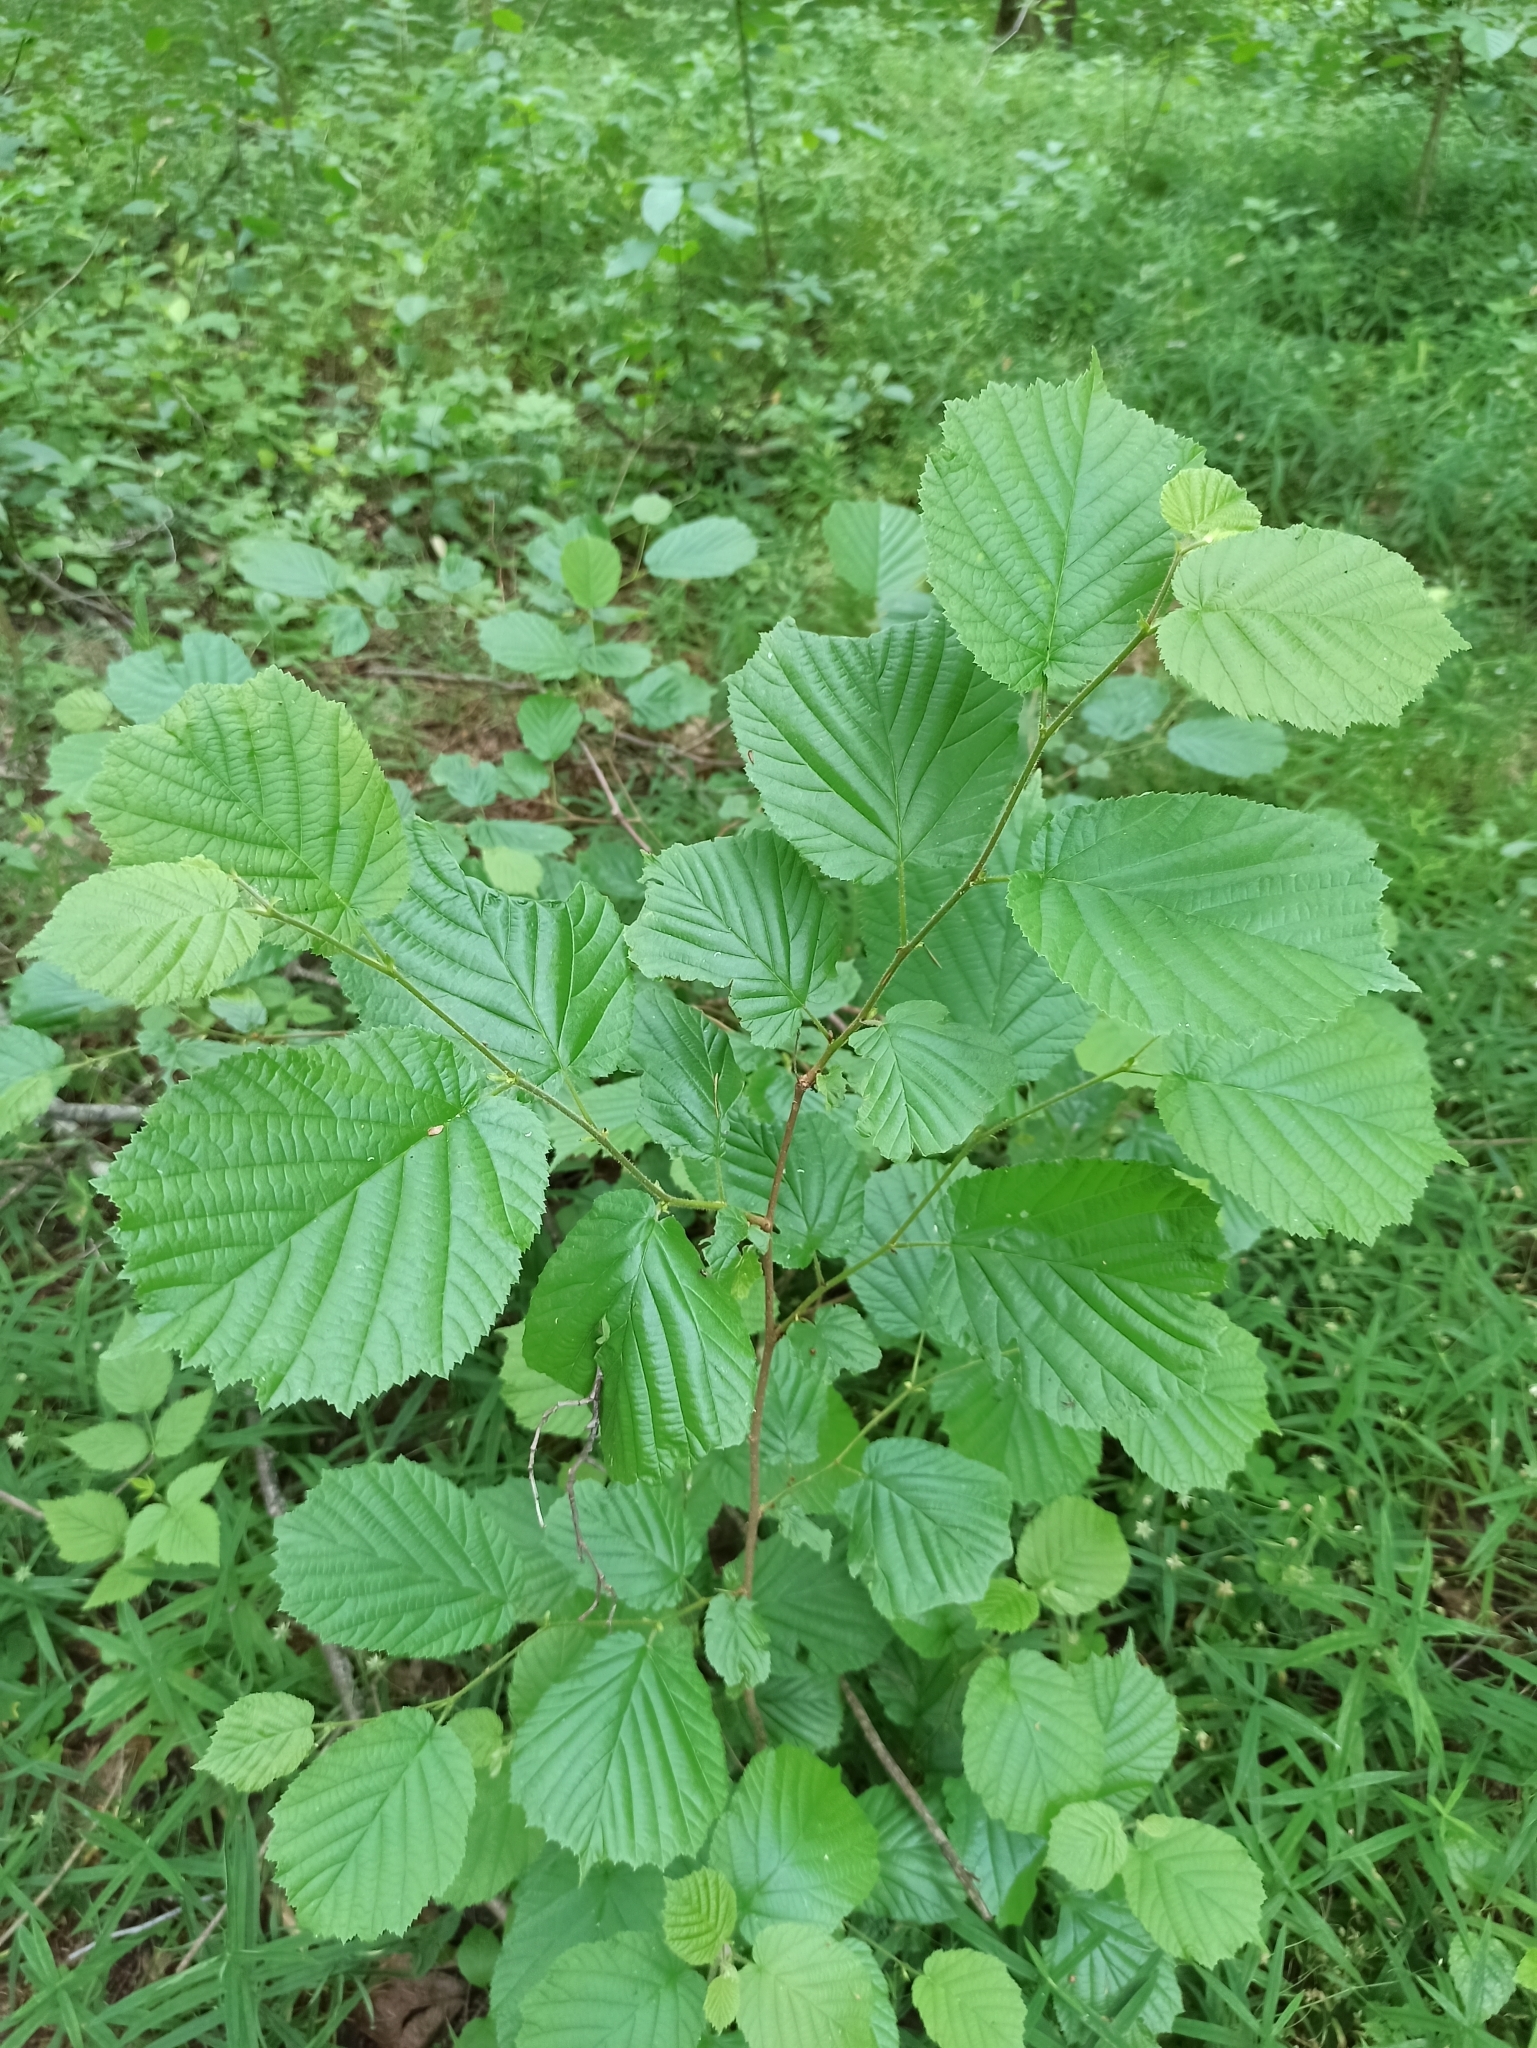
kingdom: Plantae
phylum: Tracheophyta
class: Magnoliopsida
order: Fagales
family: Betulaceae
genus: Corylus
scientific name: Corylus avellana
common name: European hazel
